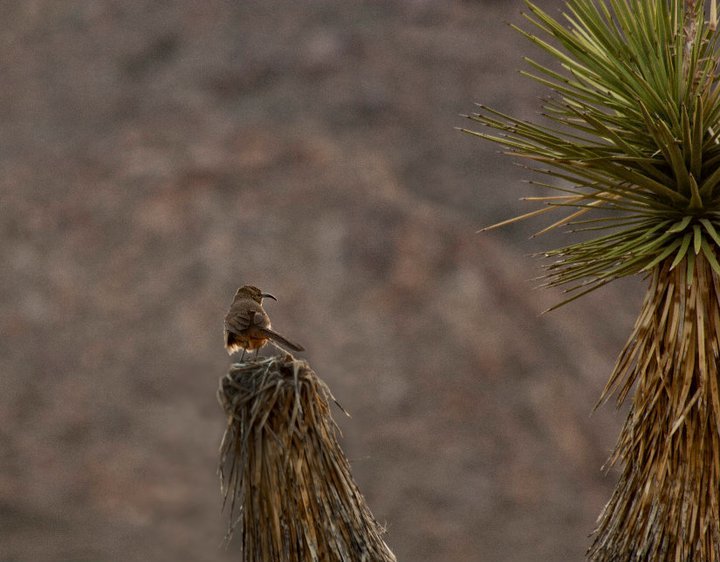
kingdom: Animalia
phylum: Chordata
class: Aves
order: Passeriformes
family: Mimidae
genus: Toxostoma
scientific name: Toxostoma redivivum
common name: California thrasher
